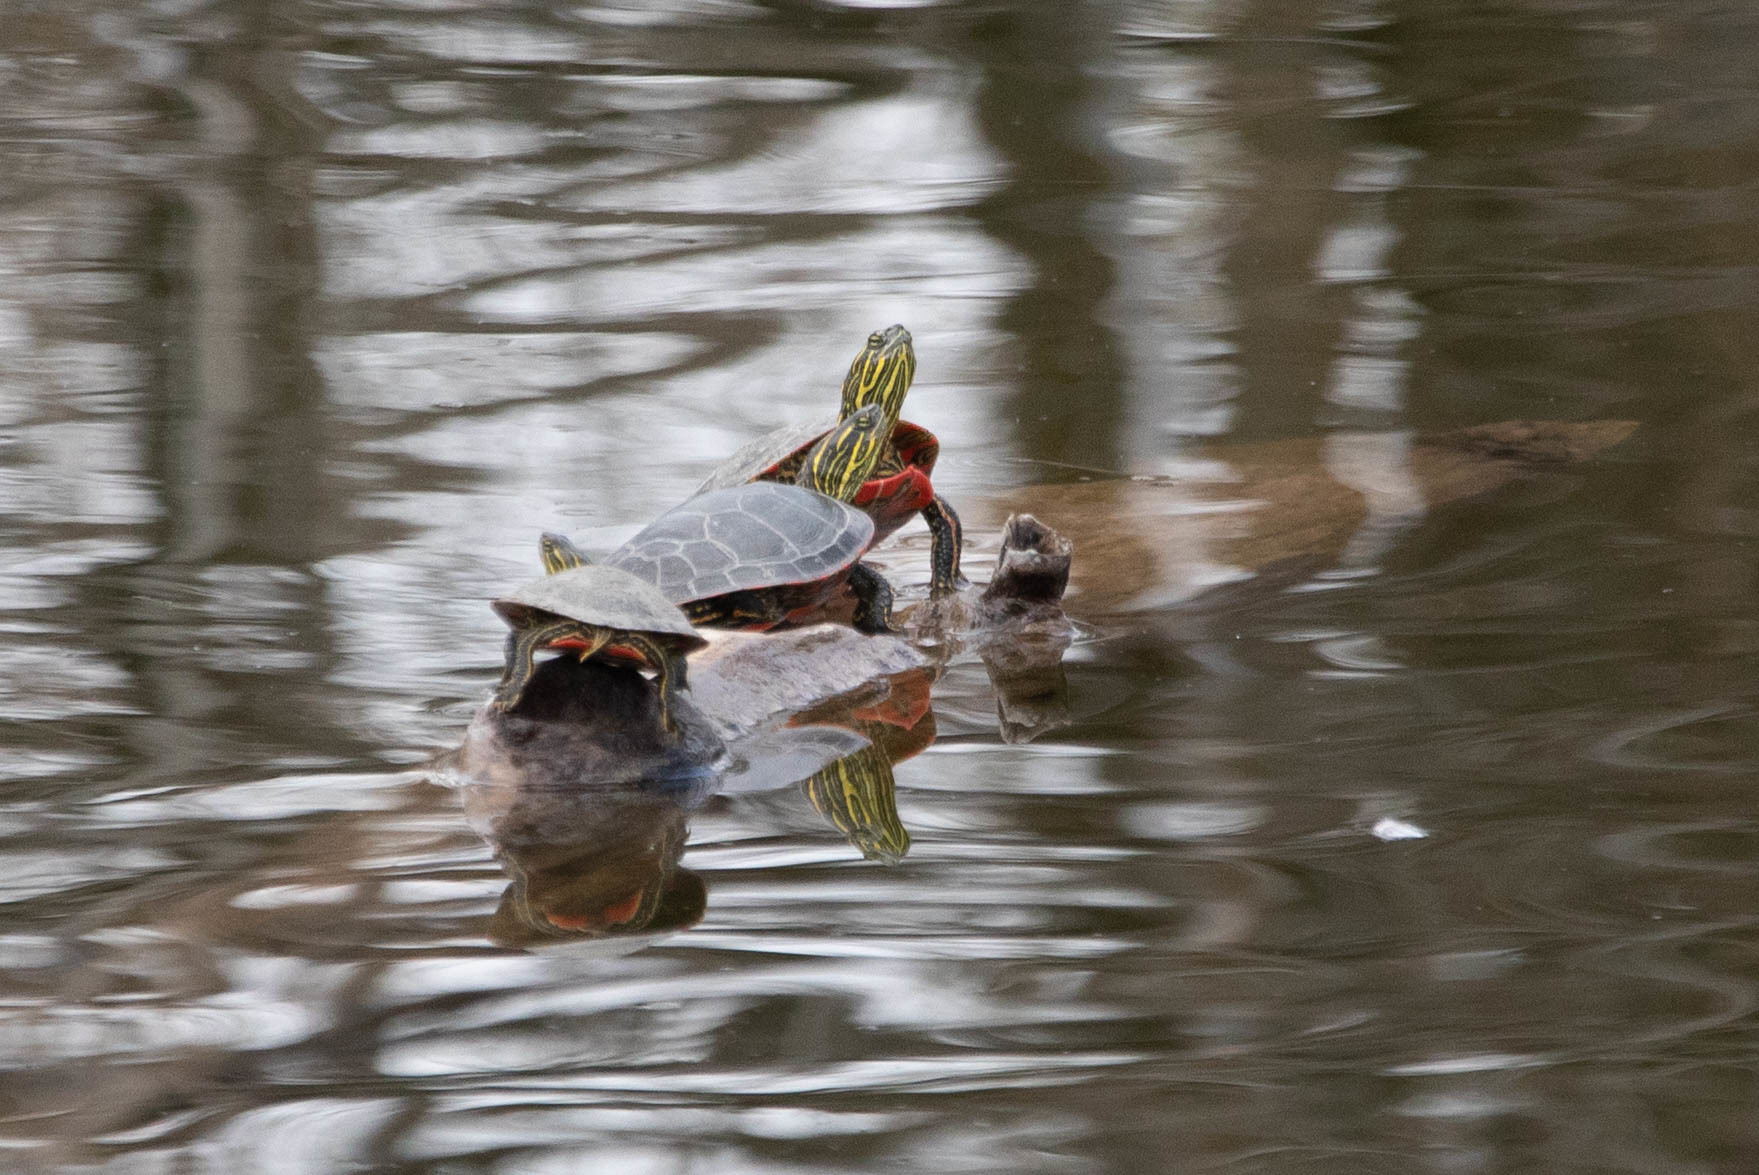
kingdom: Animalia
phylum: Chordata
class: Testudines
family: Emydidae
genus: Chrysemys
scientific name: Chrysemys picta
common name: Painted turtle
